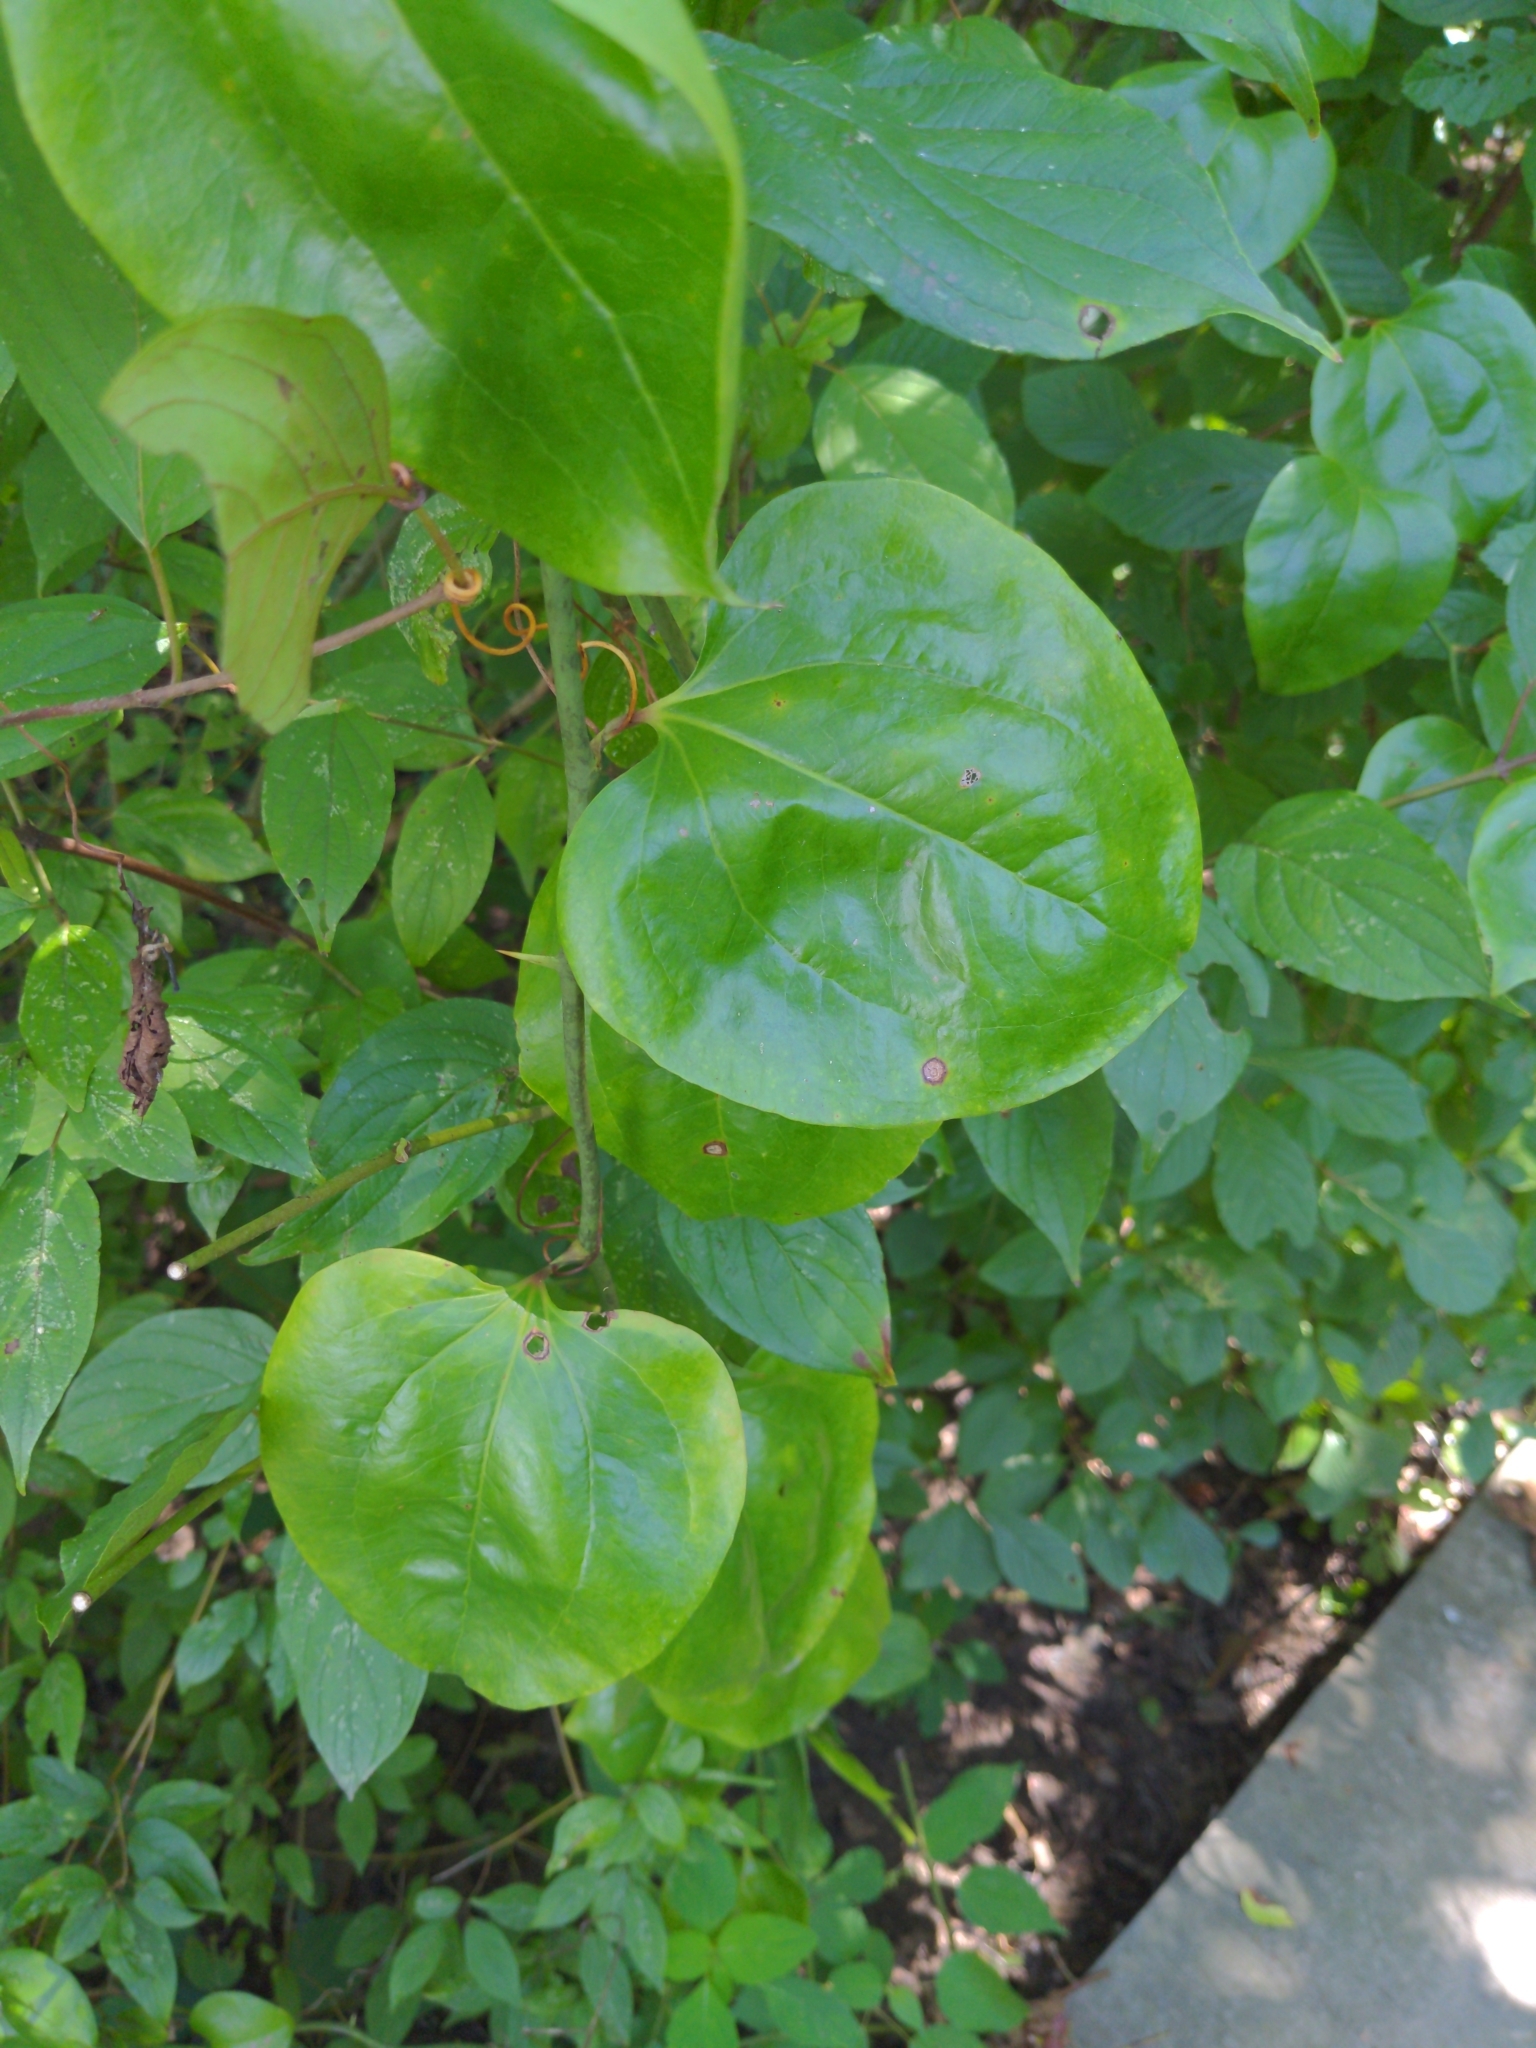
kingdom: Plantae
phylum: Tracheophyta
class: Liliopsida
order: Liliales
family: Smilacaceae
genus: Smilax
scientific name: Smilax rotundifolia
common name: Bullbriar
